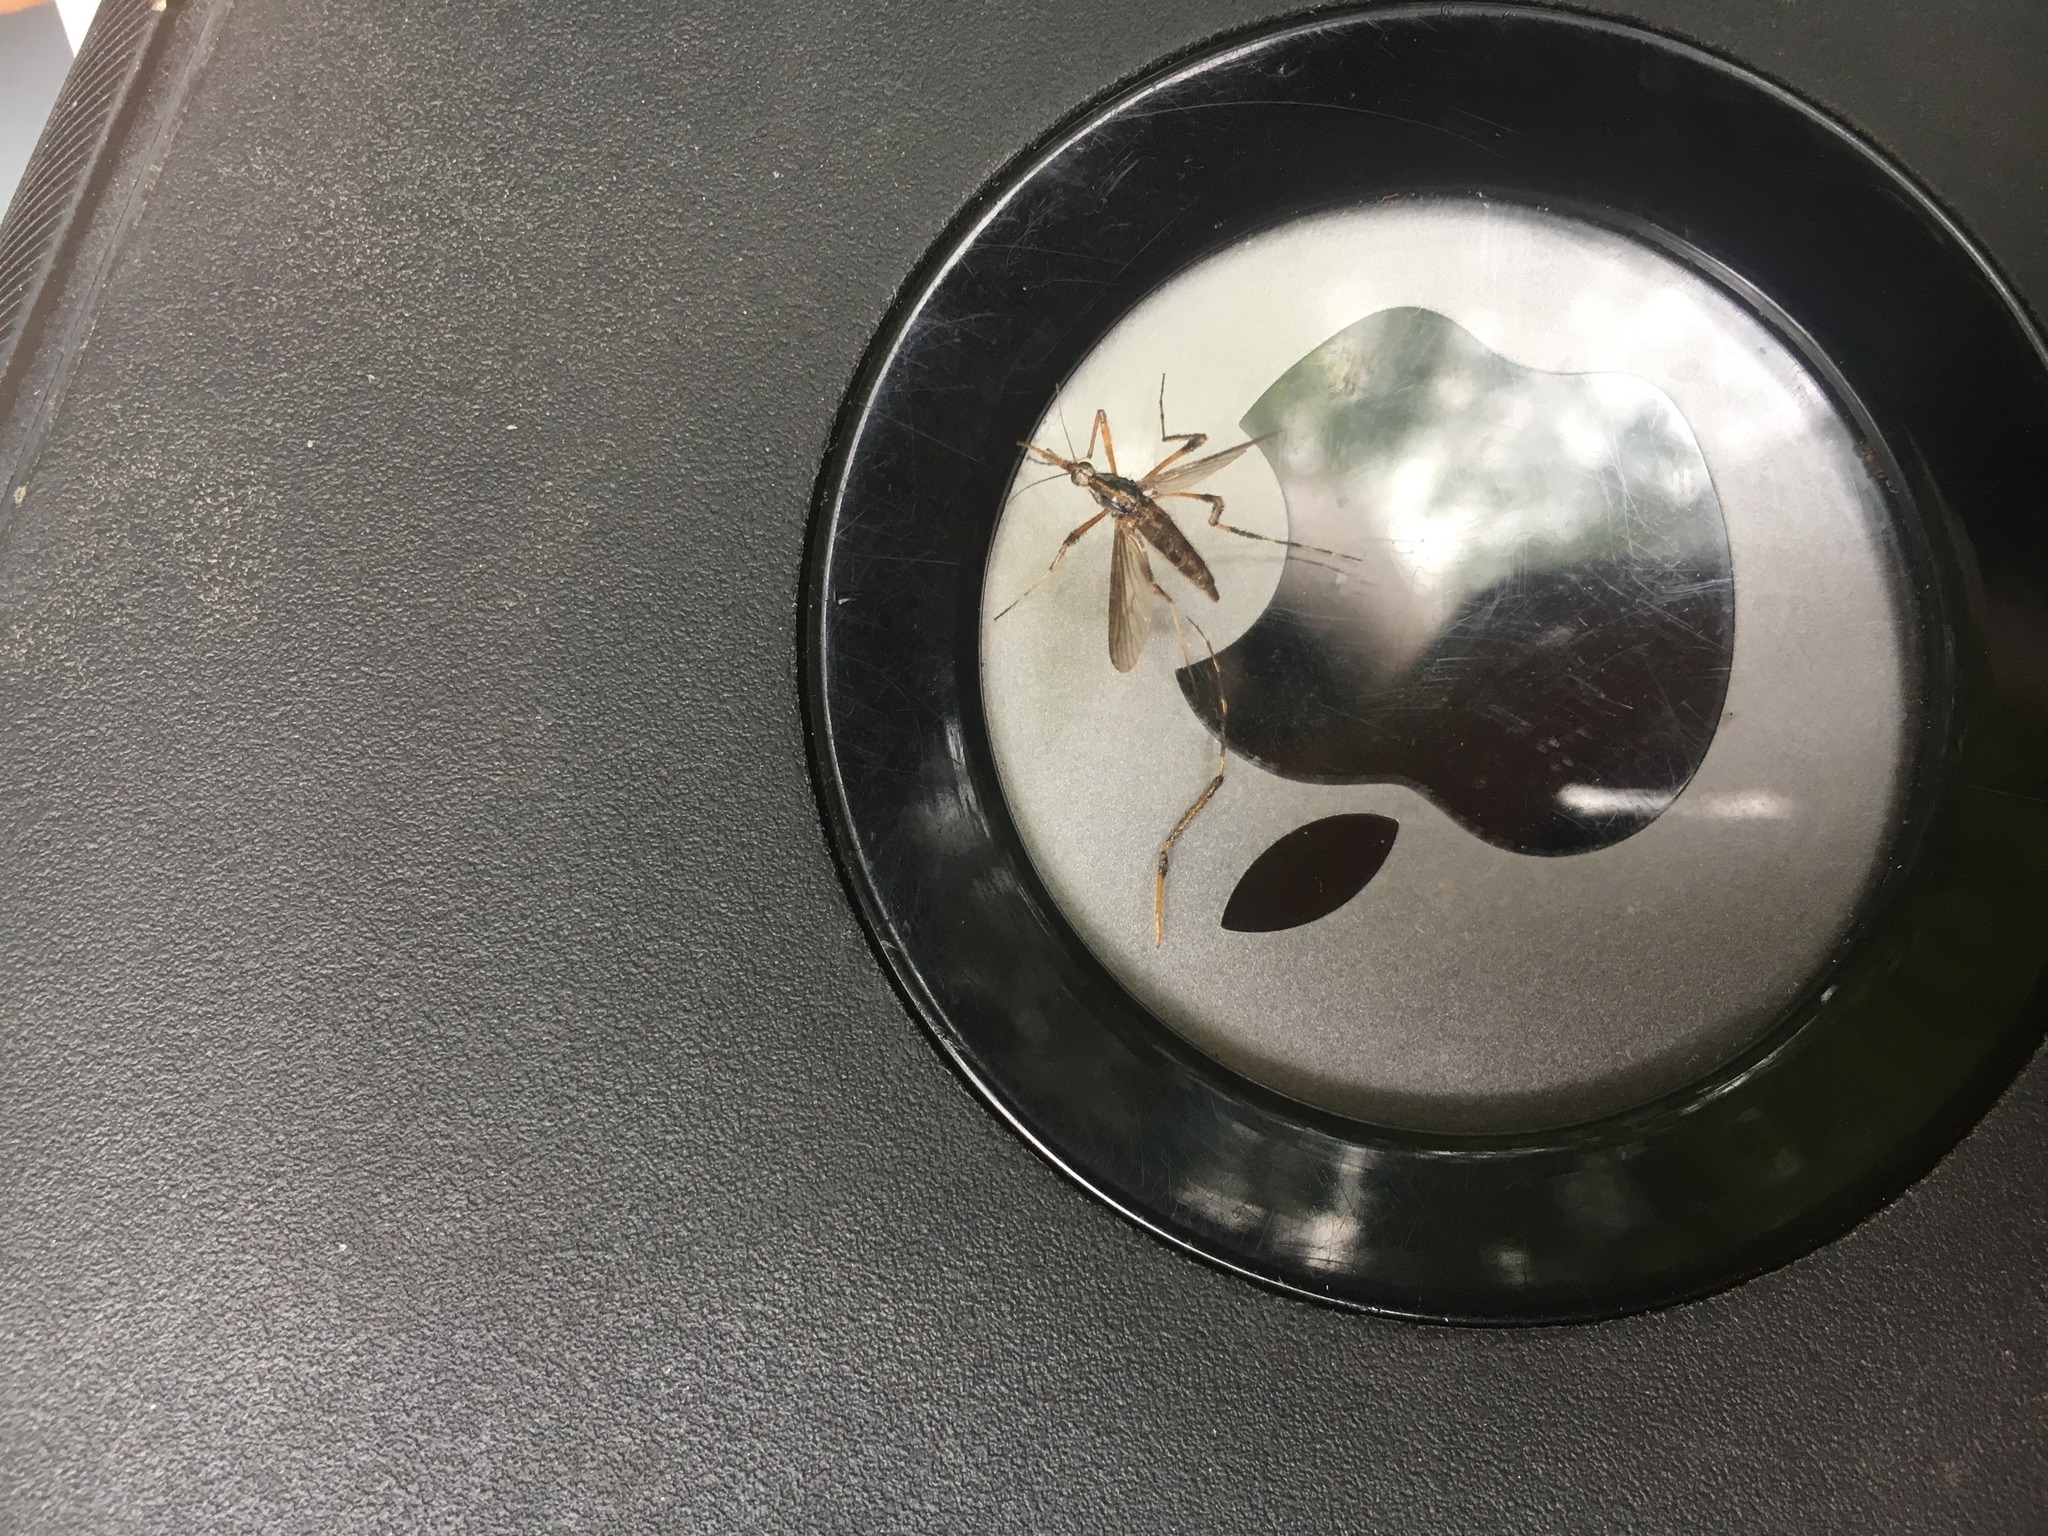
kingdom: Animalia
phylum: Arthropoda
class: Insecta
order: Diptera
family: Culicidae
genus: Psorophora
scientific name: Psorophora ciliata
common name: Gallinipper
